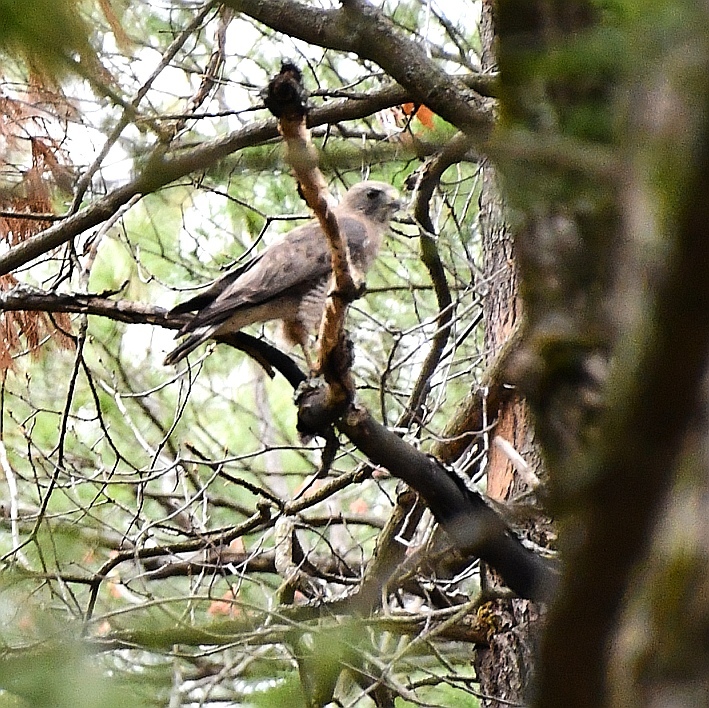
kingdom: Animalia
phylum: Chordata
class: Aves
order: Accipitriformes
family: Accipitridae
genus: Buteo
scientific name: Buteo platypterus
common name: Broad-winged hawk
